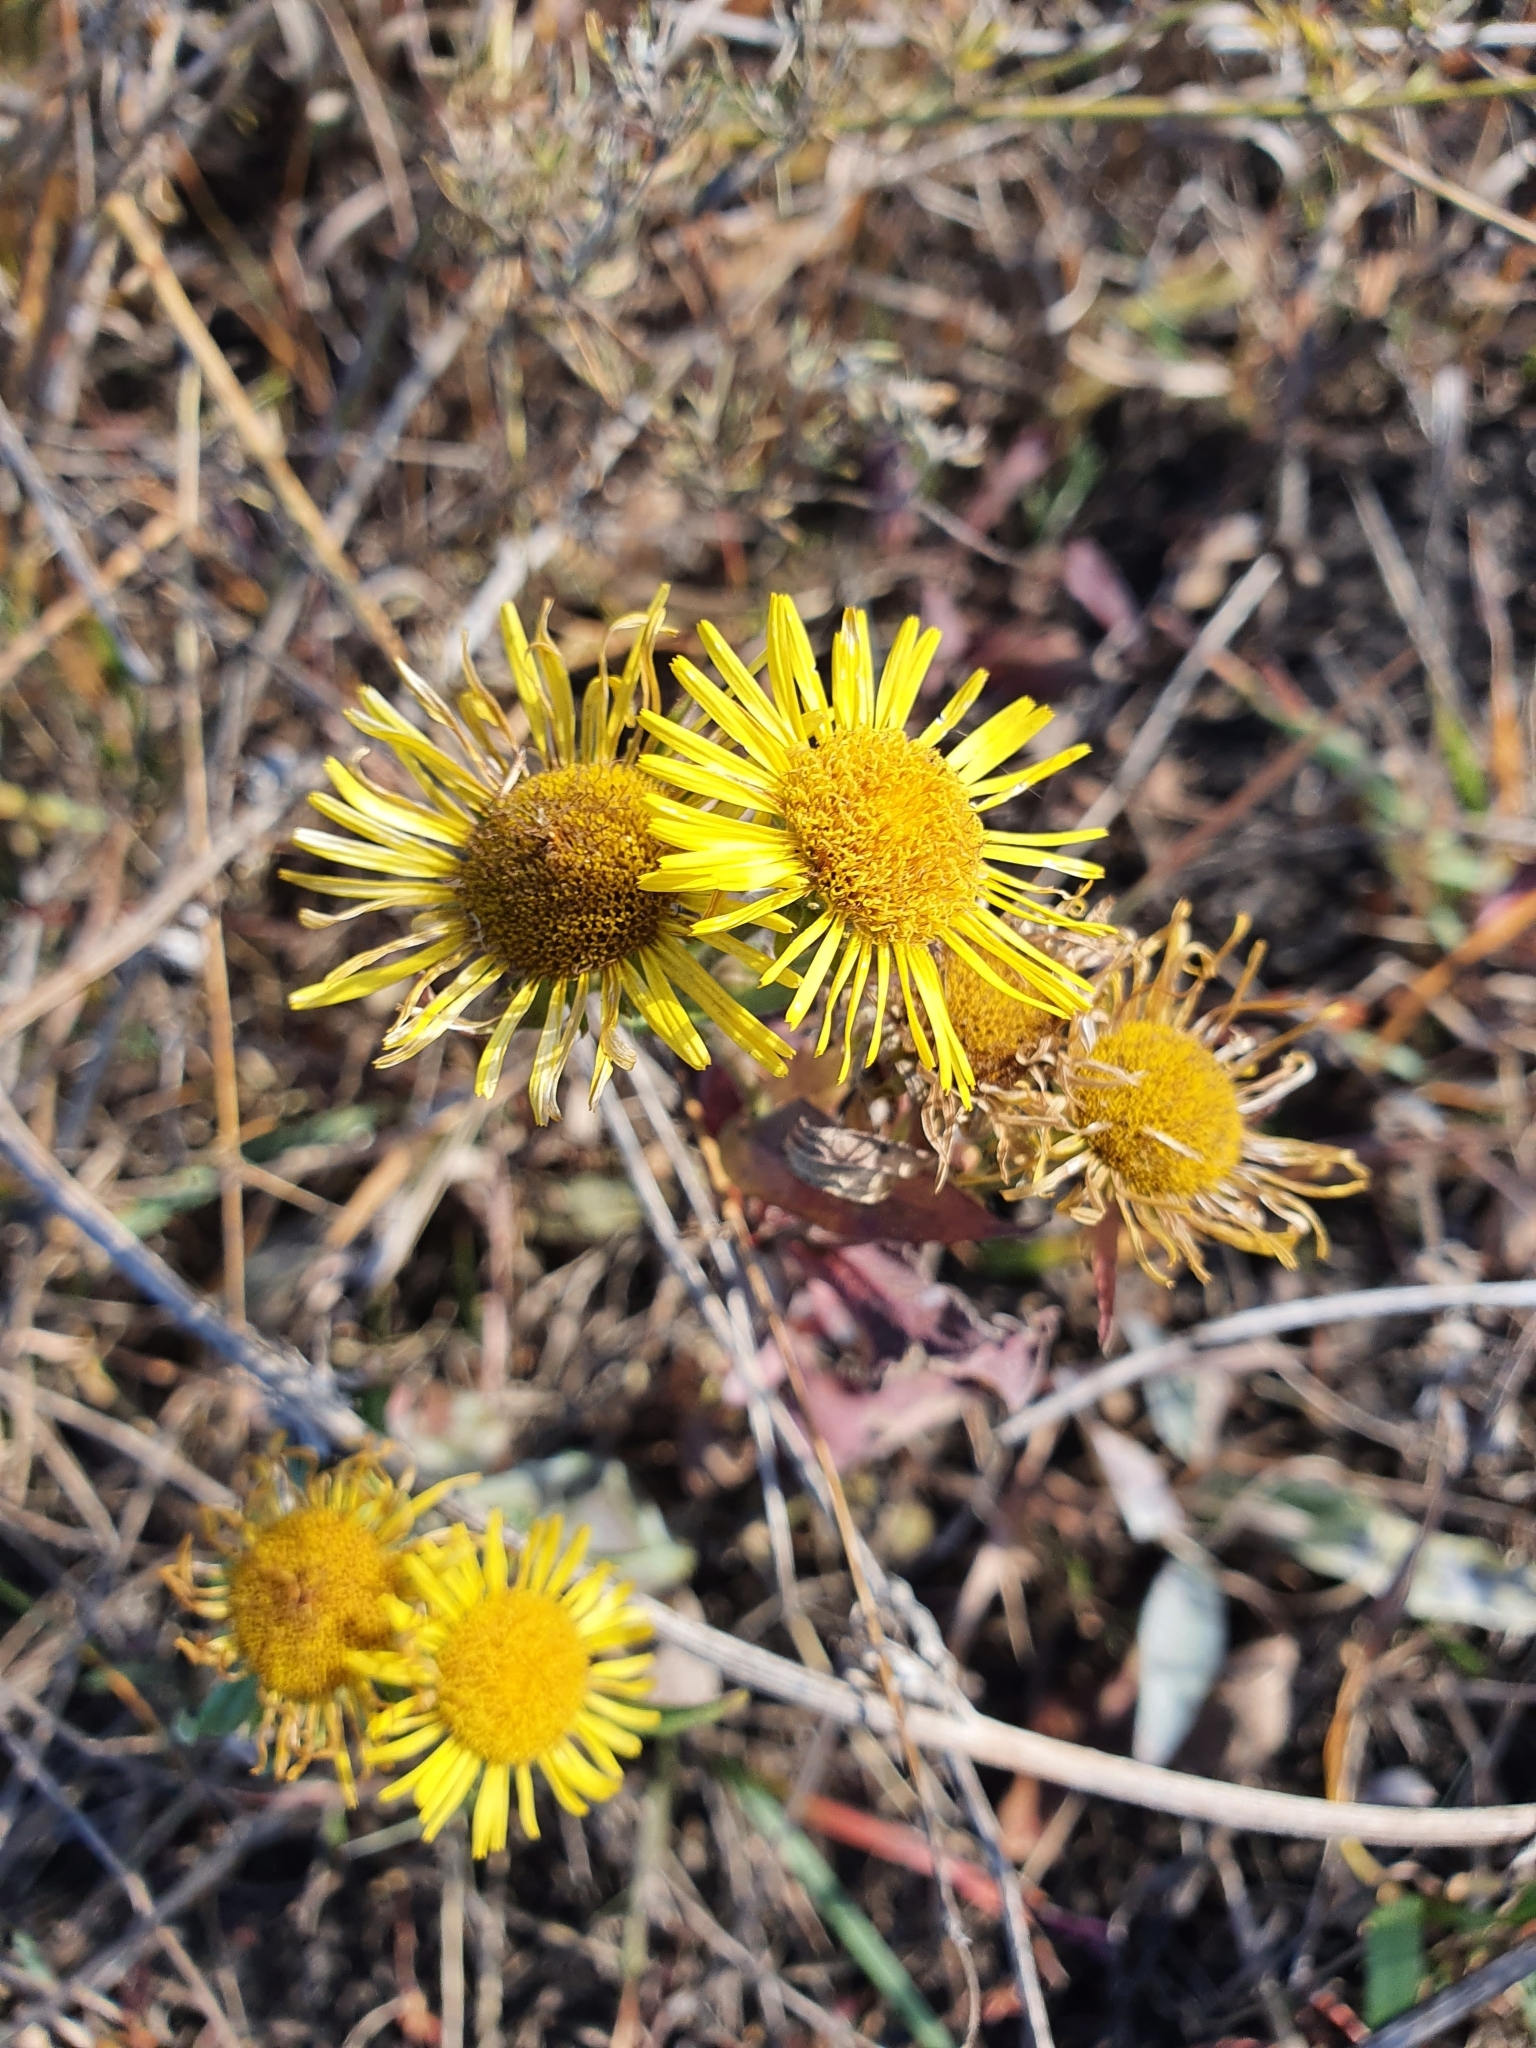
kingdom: Plantae
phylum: Tracheophyta
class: Magnoliopsida
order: Asterales
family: Asteraceae
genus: Pentanema
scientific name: Pentanema britannicum
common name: British elecampane
